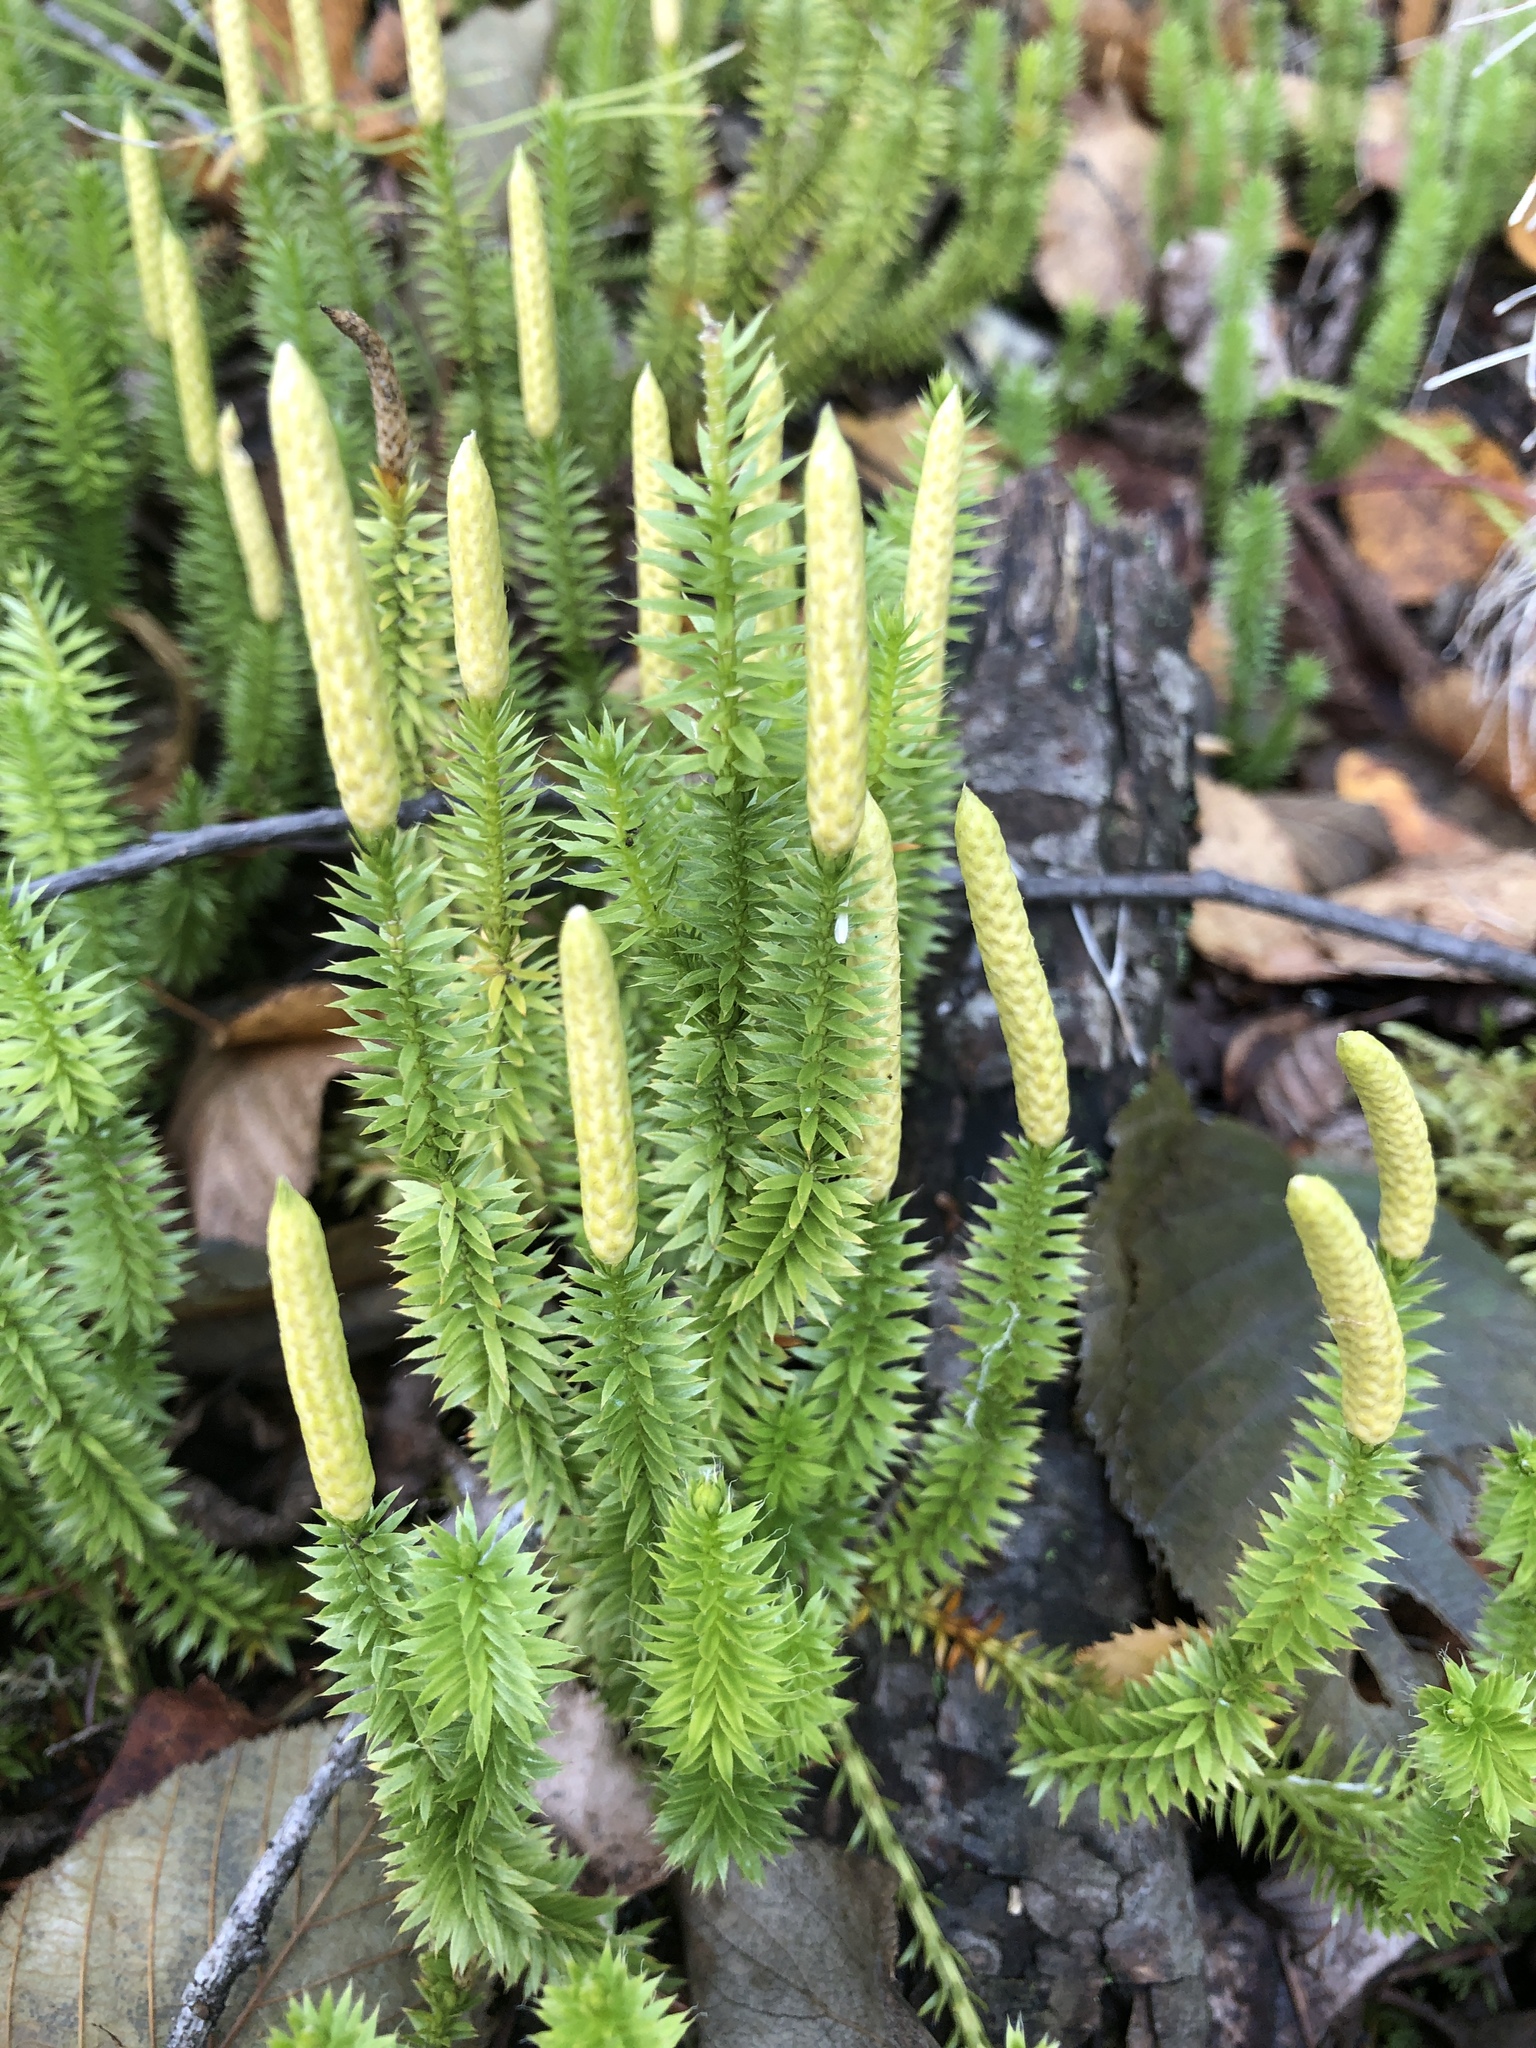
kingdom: Plantae
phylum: Tracheophyta
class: Lycopodiopsida
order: Lycopodiales
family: Lycopodiaceae
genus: Spinulum
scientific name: Spinulum annotinum
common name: Interrupted club-moss
